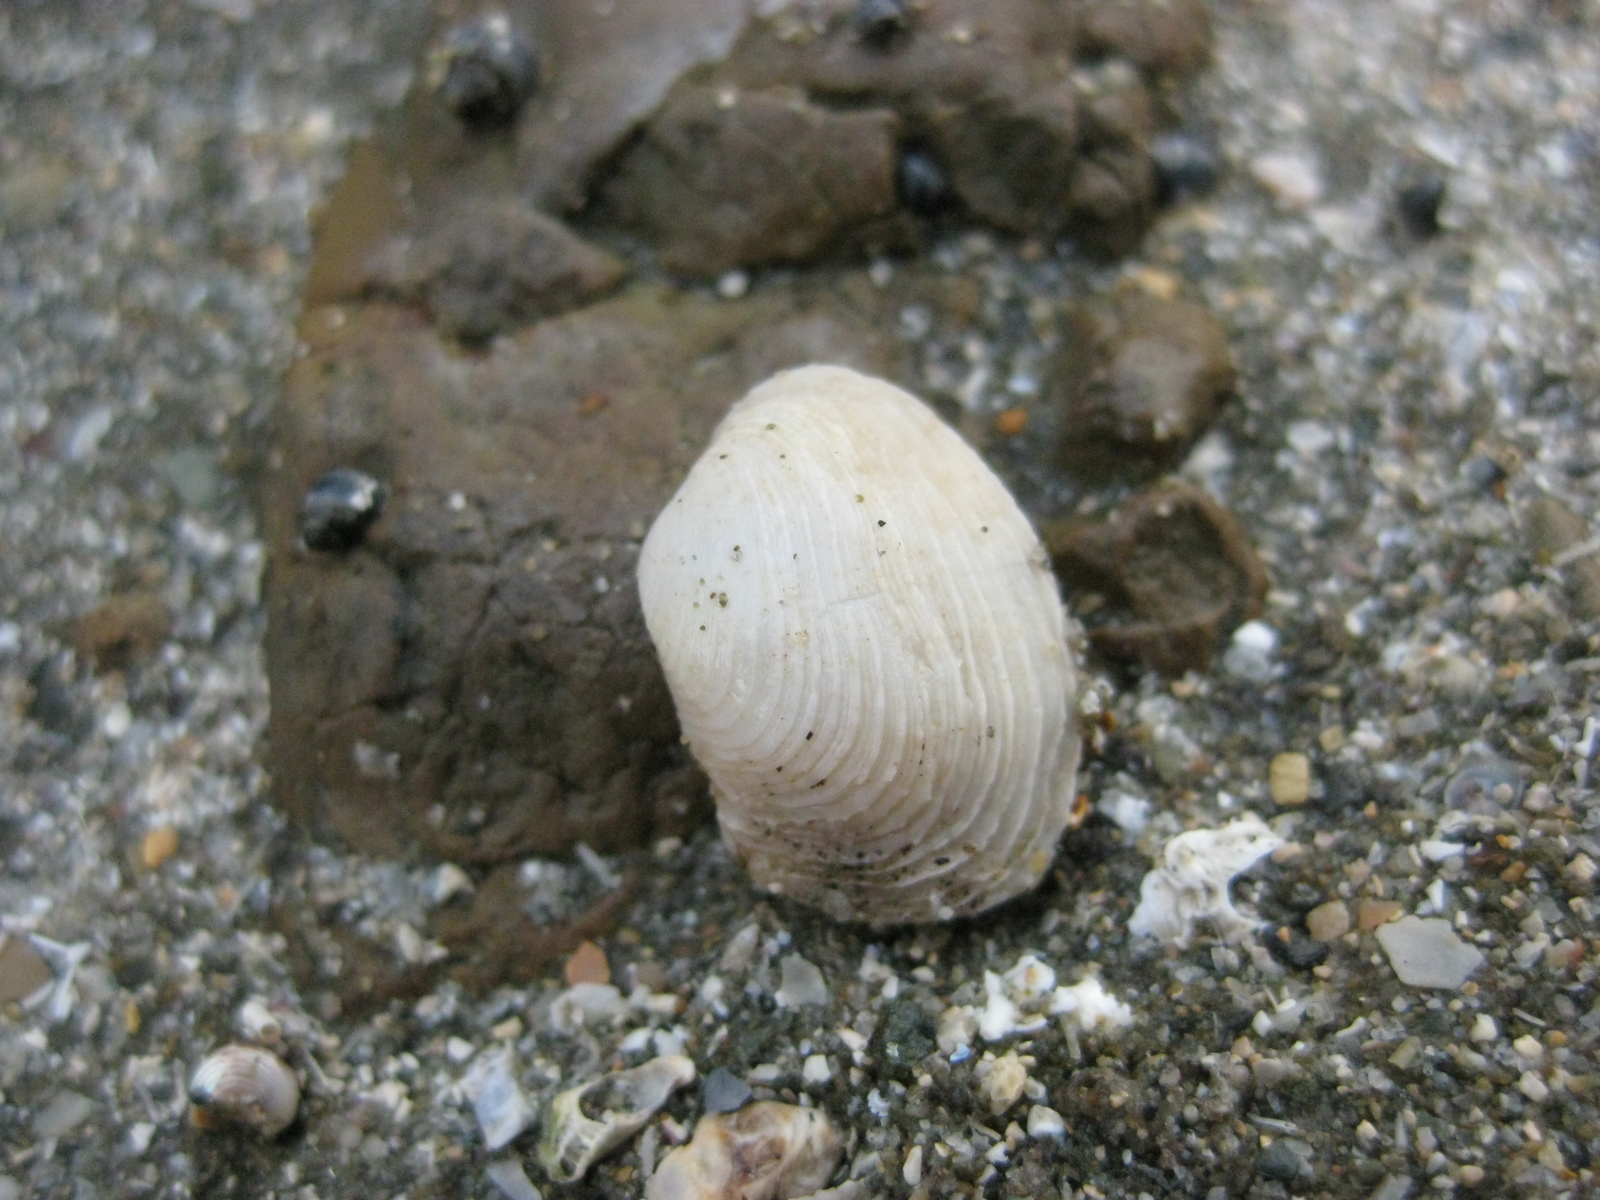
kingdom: Animalia
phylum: Mollusca
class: Bivalvia
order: Venerida
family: Veneridae
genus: Irus
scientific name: Irus reflexus
